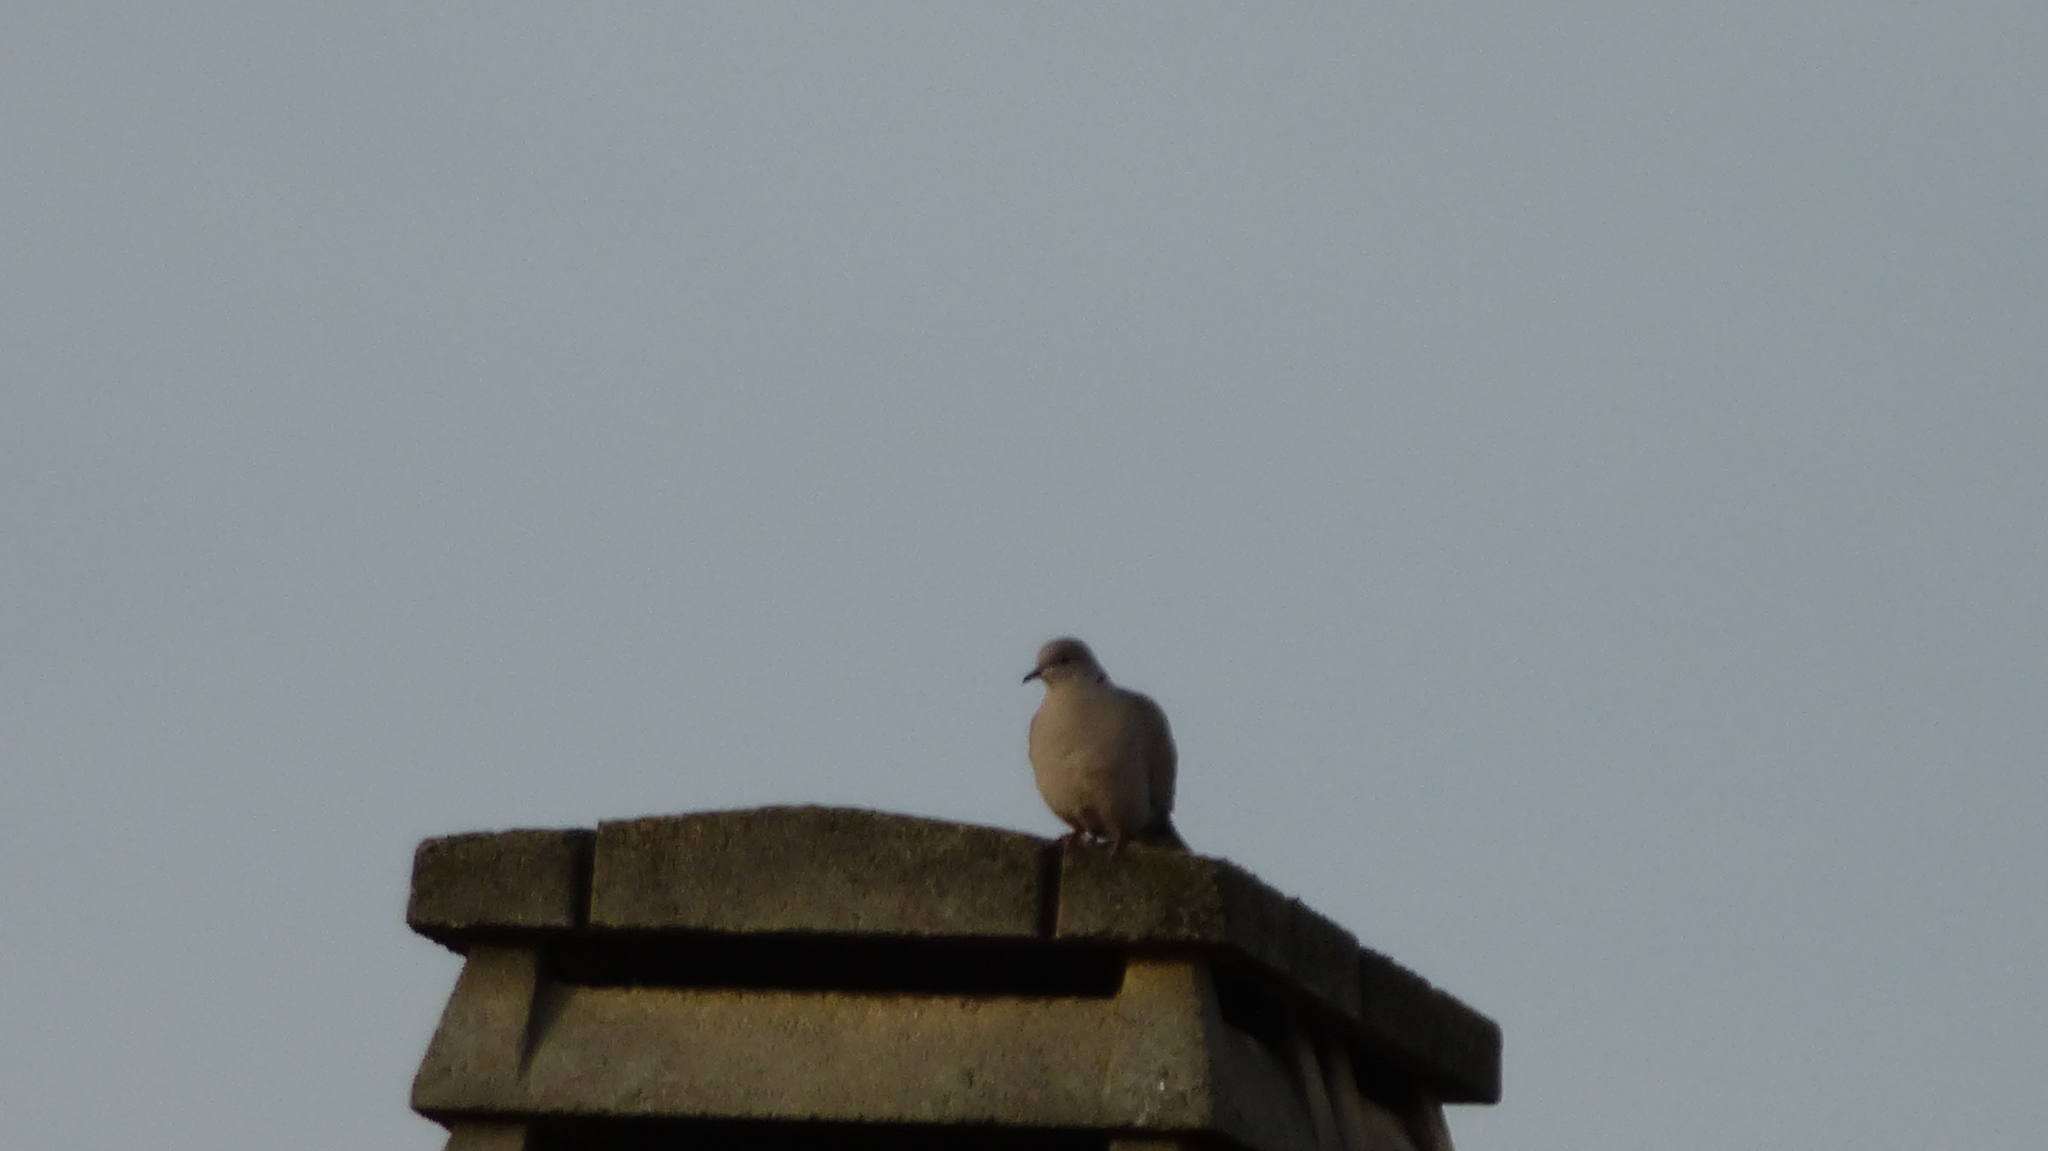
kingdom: Animalia
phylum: Chordata
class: Aves
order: Columbiformes
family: Columbidae
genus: Streptopelia
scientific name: Streptopelia decaocto
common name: Eurasian collared dove
